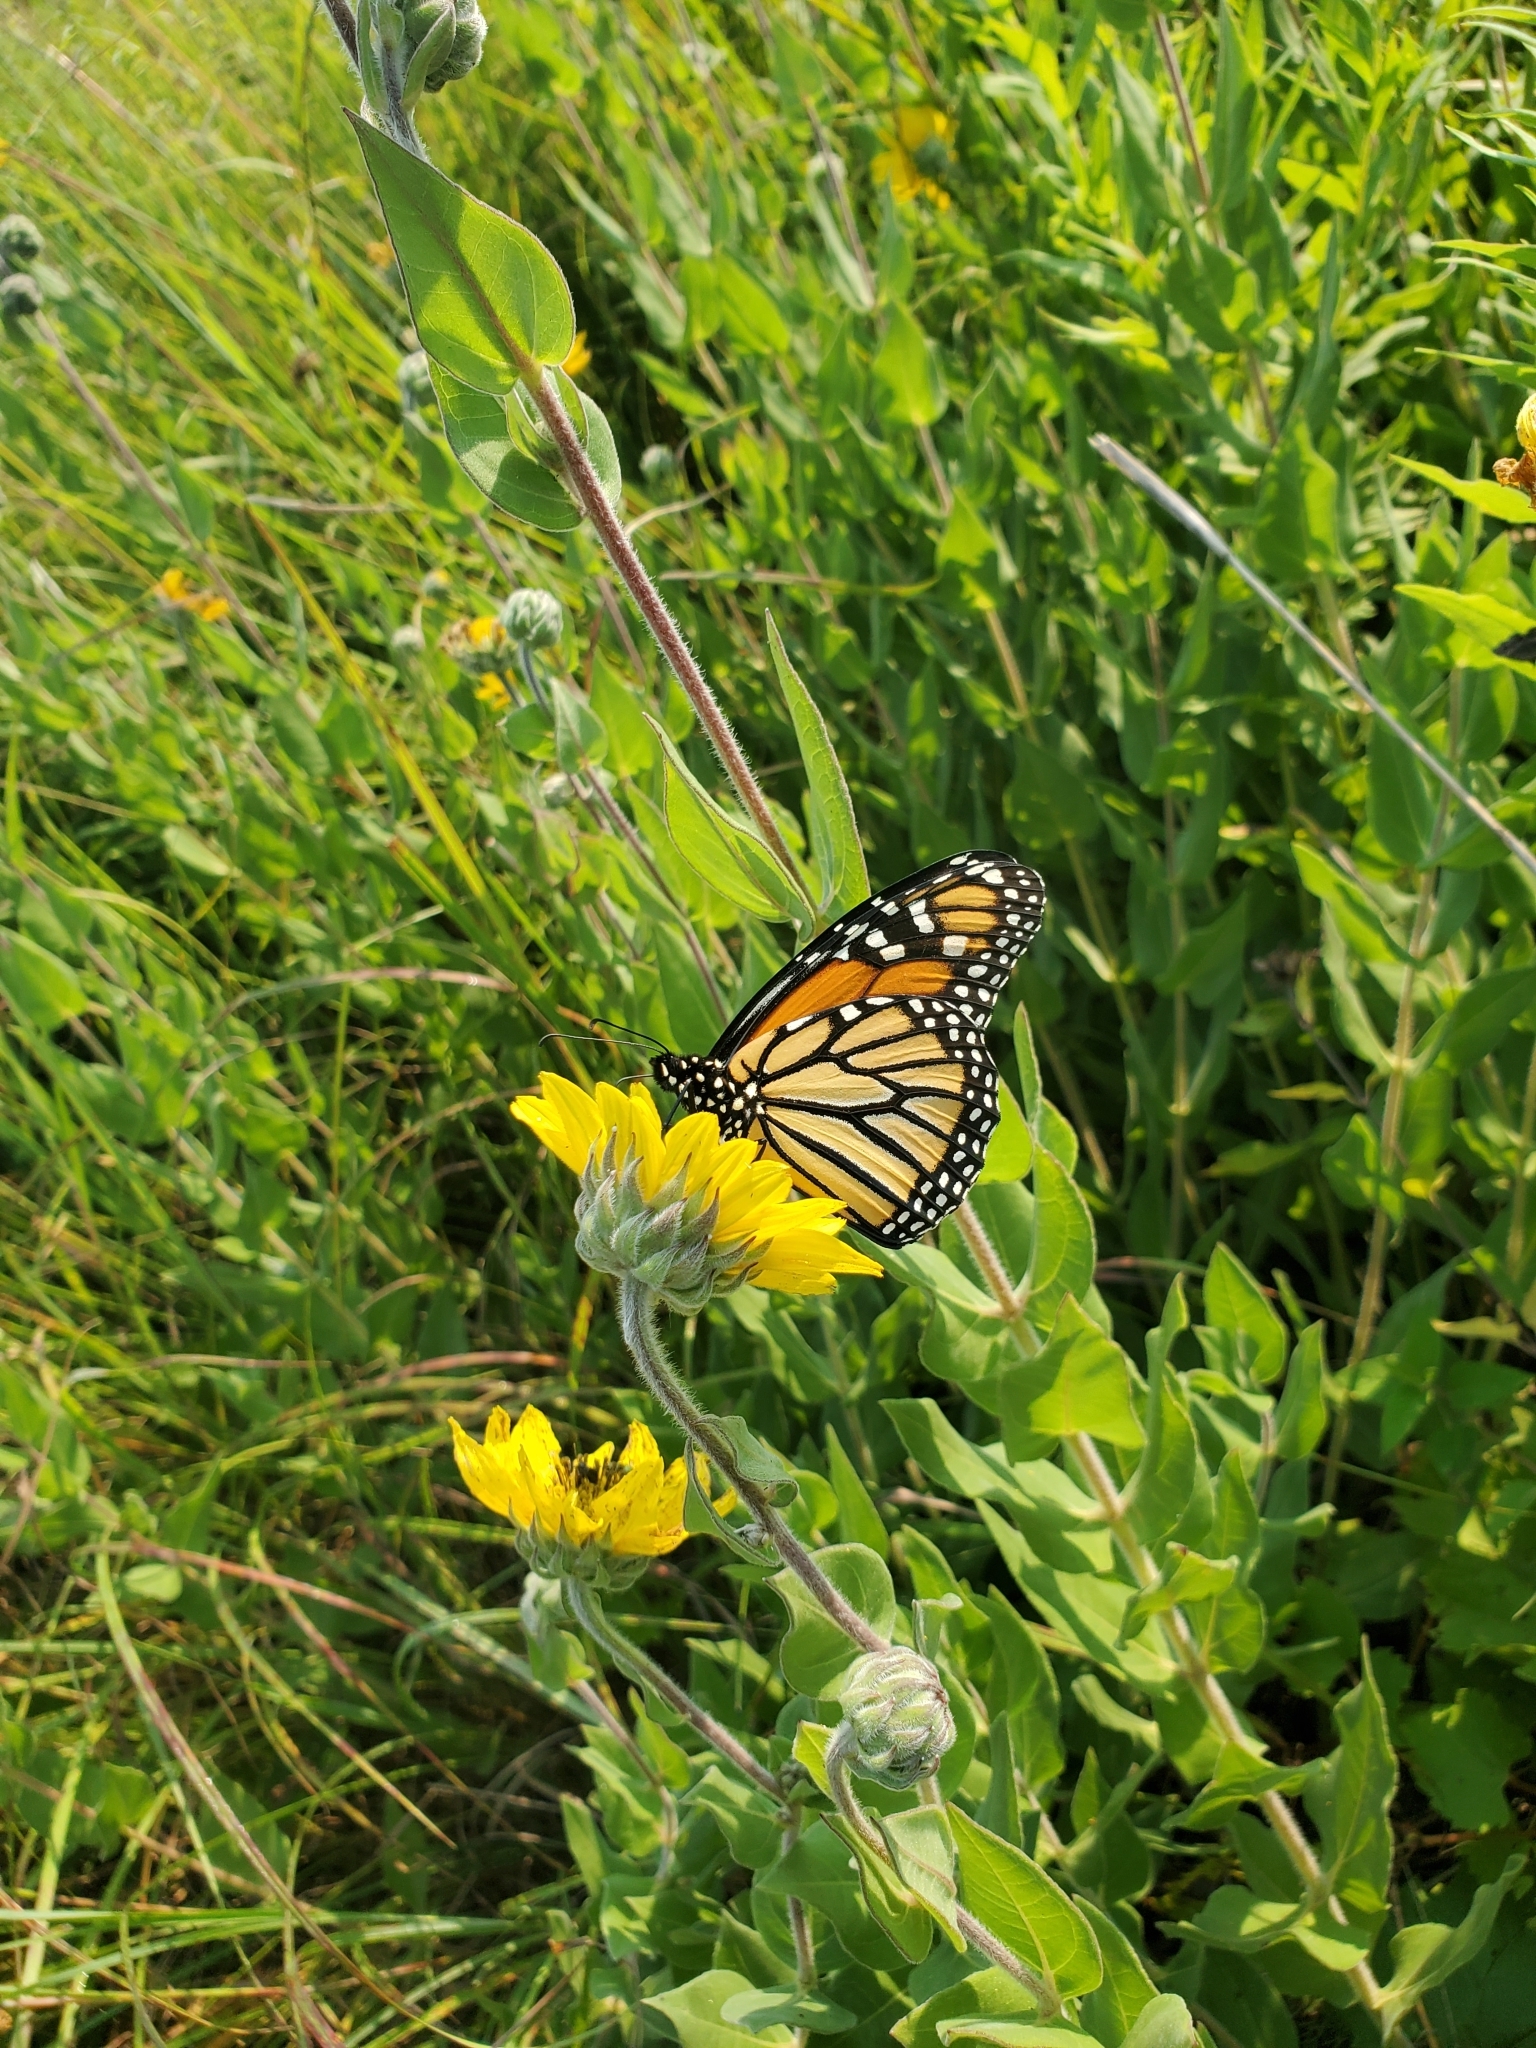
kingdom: Animalia
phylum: Arthropoda
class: Insecta
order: Lepidoptera
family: Nymphalidae
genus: Danaus
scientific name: Danaus plexippus
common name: Monarch
